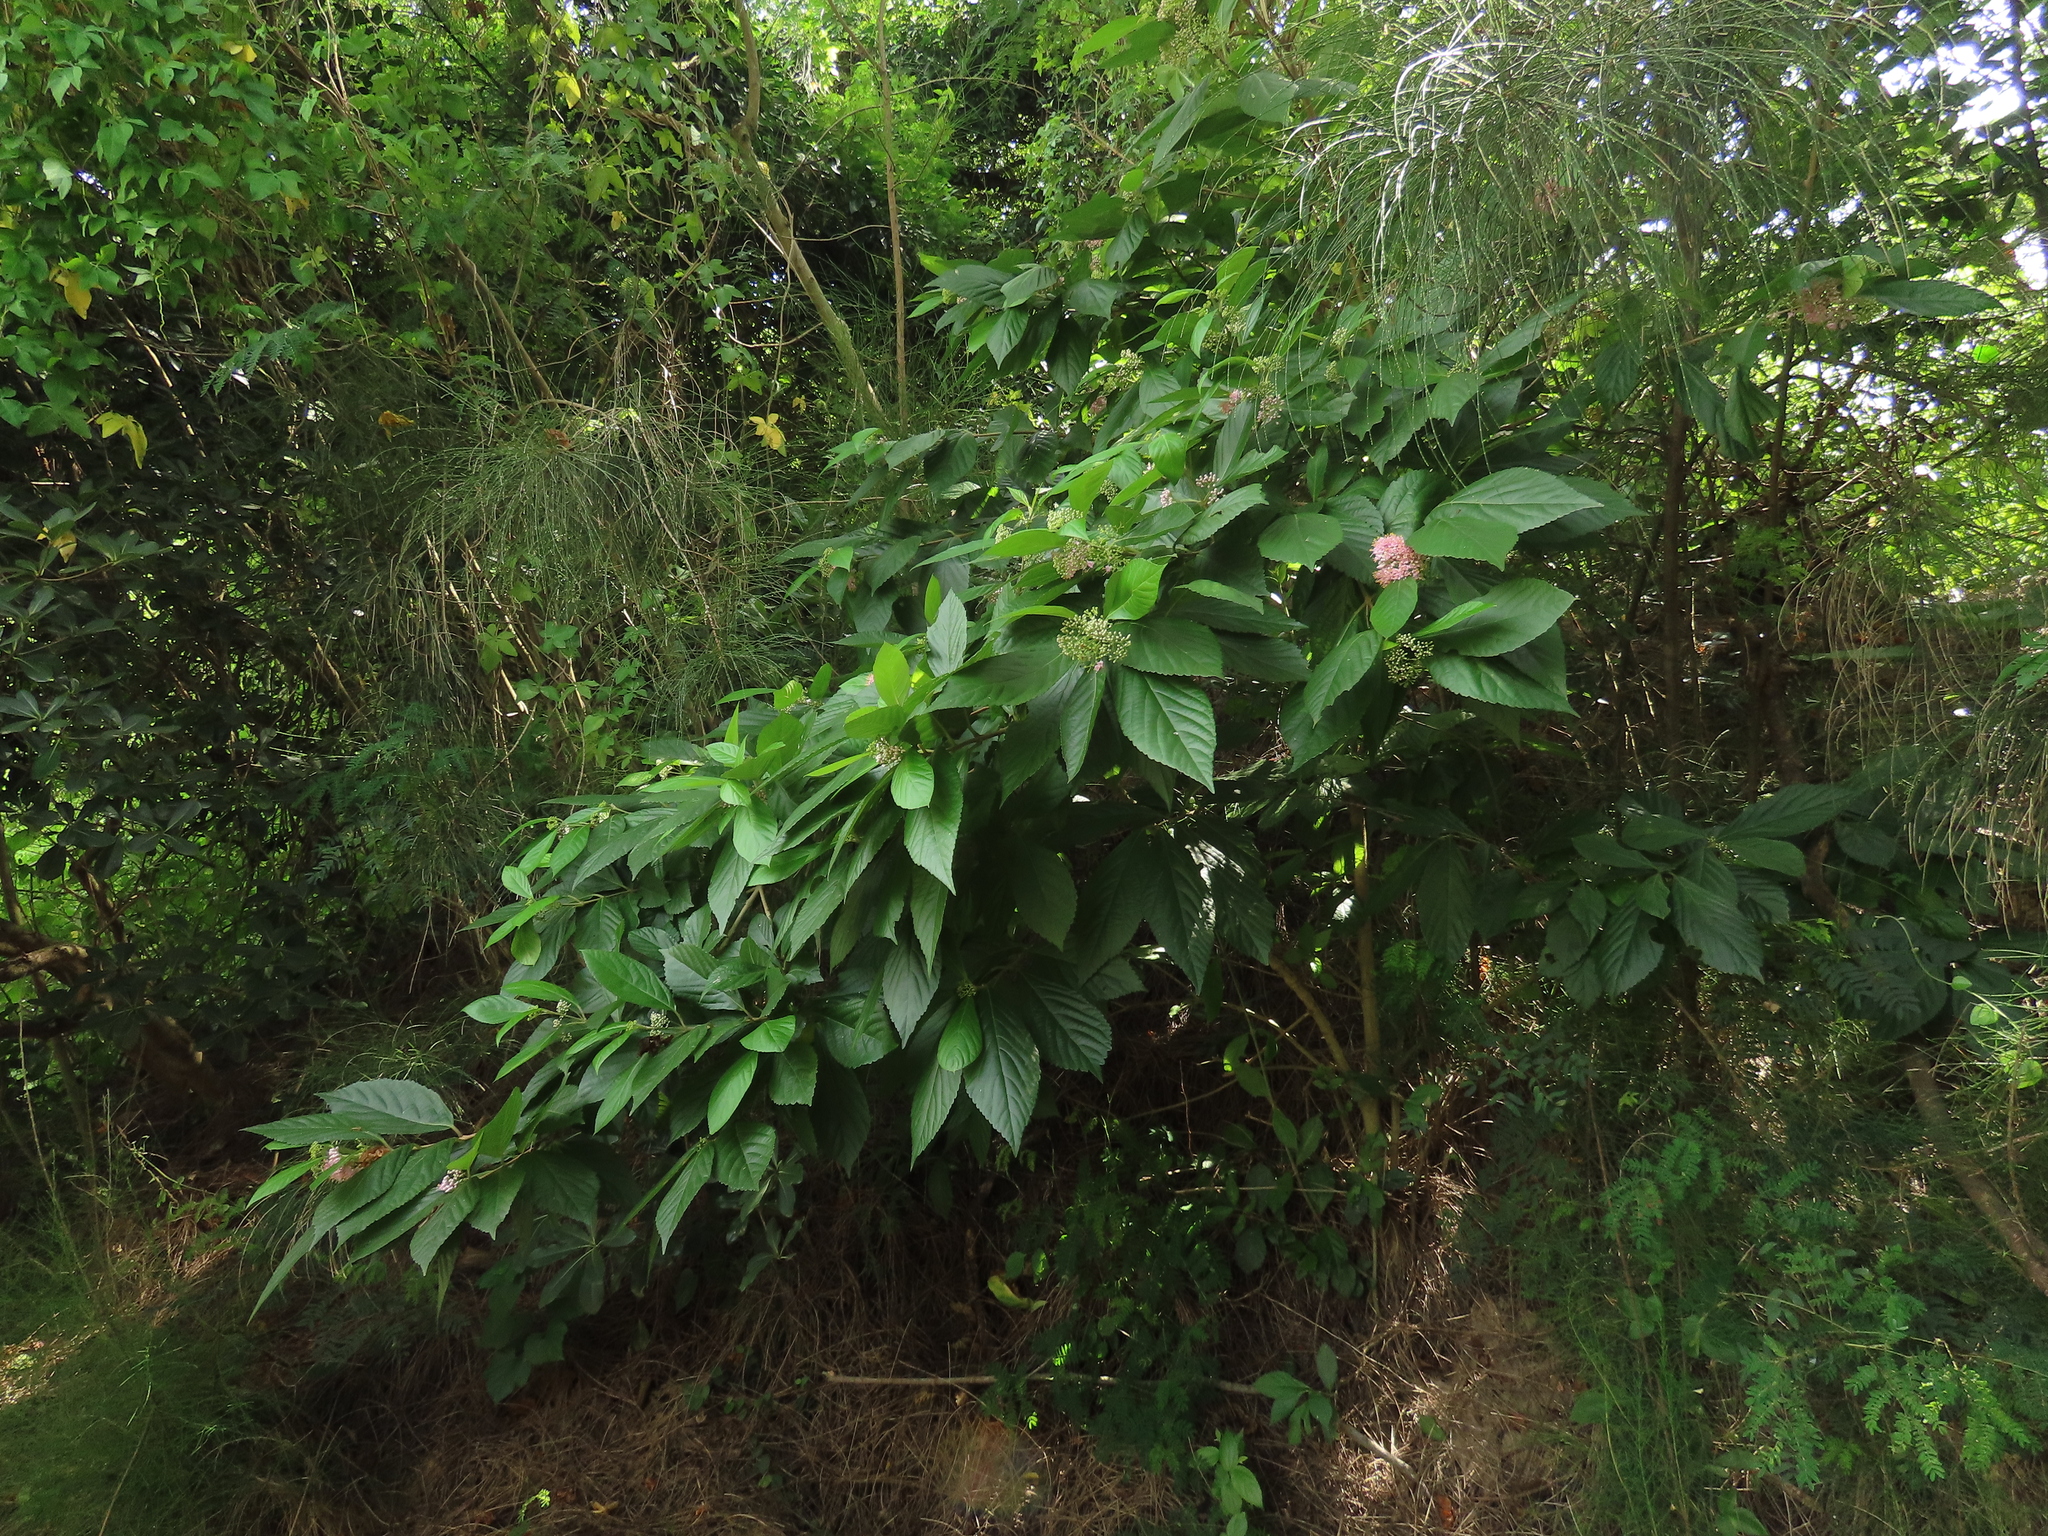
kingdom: Plantae
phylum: Tracheophyta
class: Magnoliopsida
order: Lamiales
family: Lamiaceae
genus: Callicarpa
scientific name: Callicarpa japonica
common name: Japanese beauty-berry
